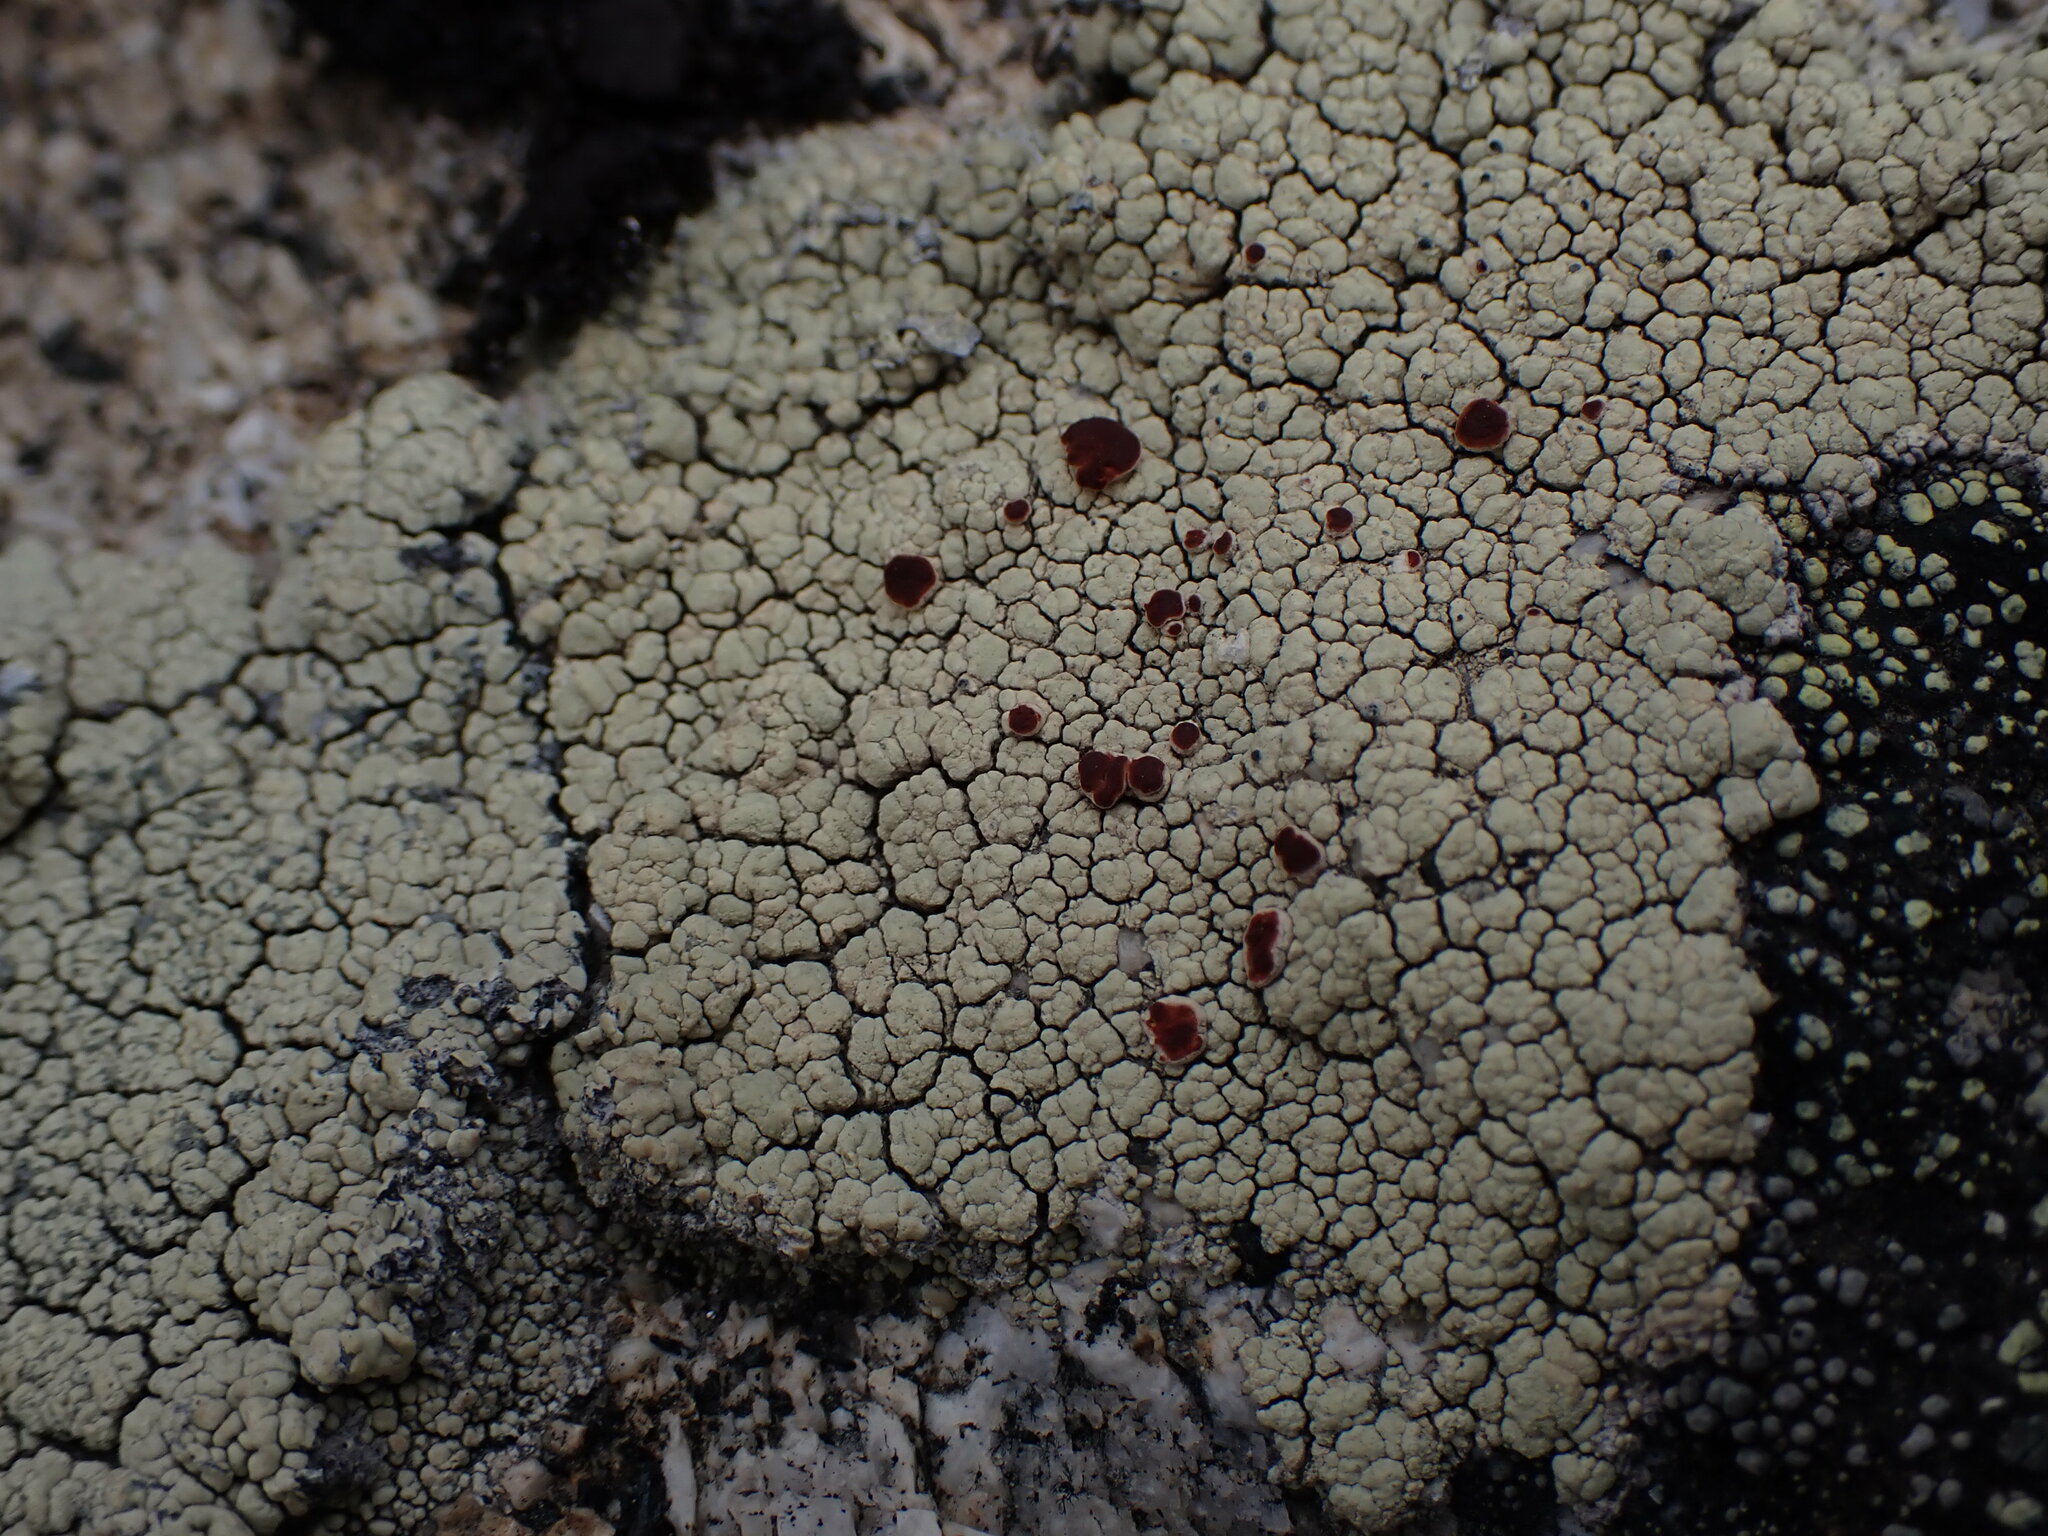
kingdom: Fungi
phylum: Ascomycota
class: Lecanoromycetes
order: Umbilicariales
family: Ophioparmaceae
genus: Ophioparma
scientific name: Ophioparma ventosa
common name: Blood-spot
